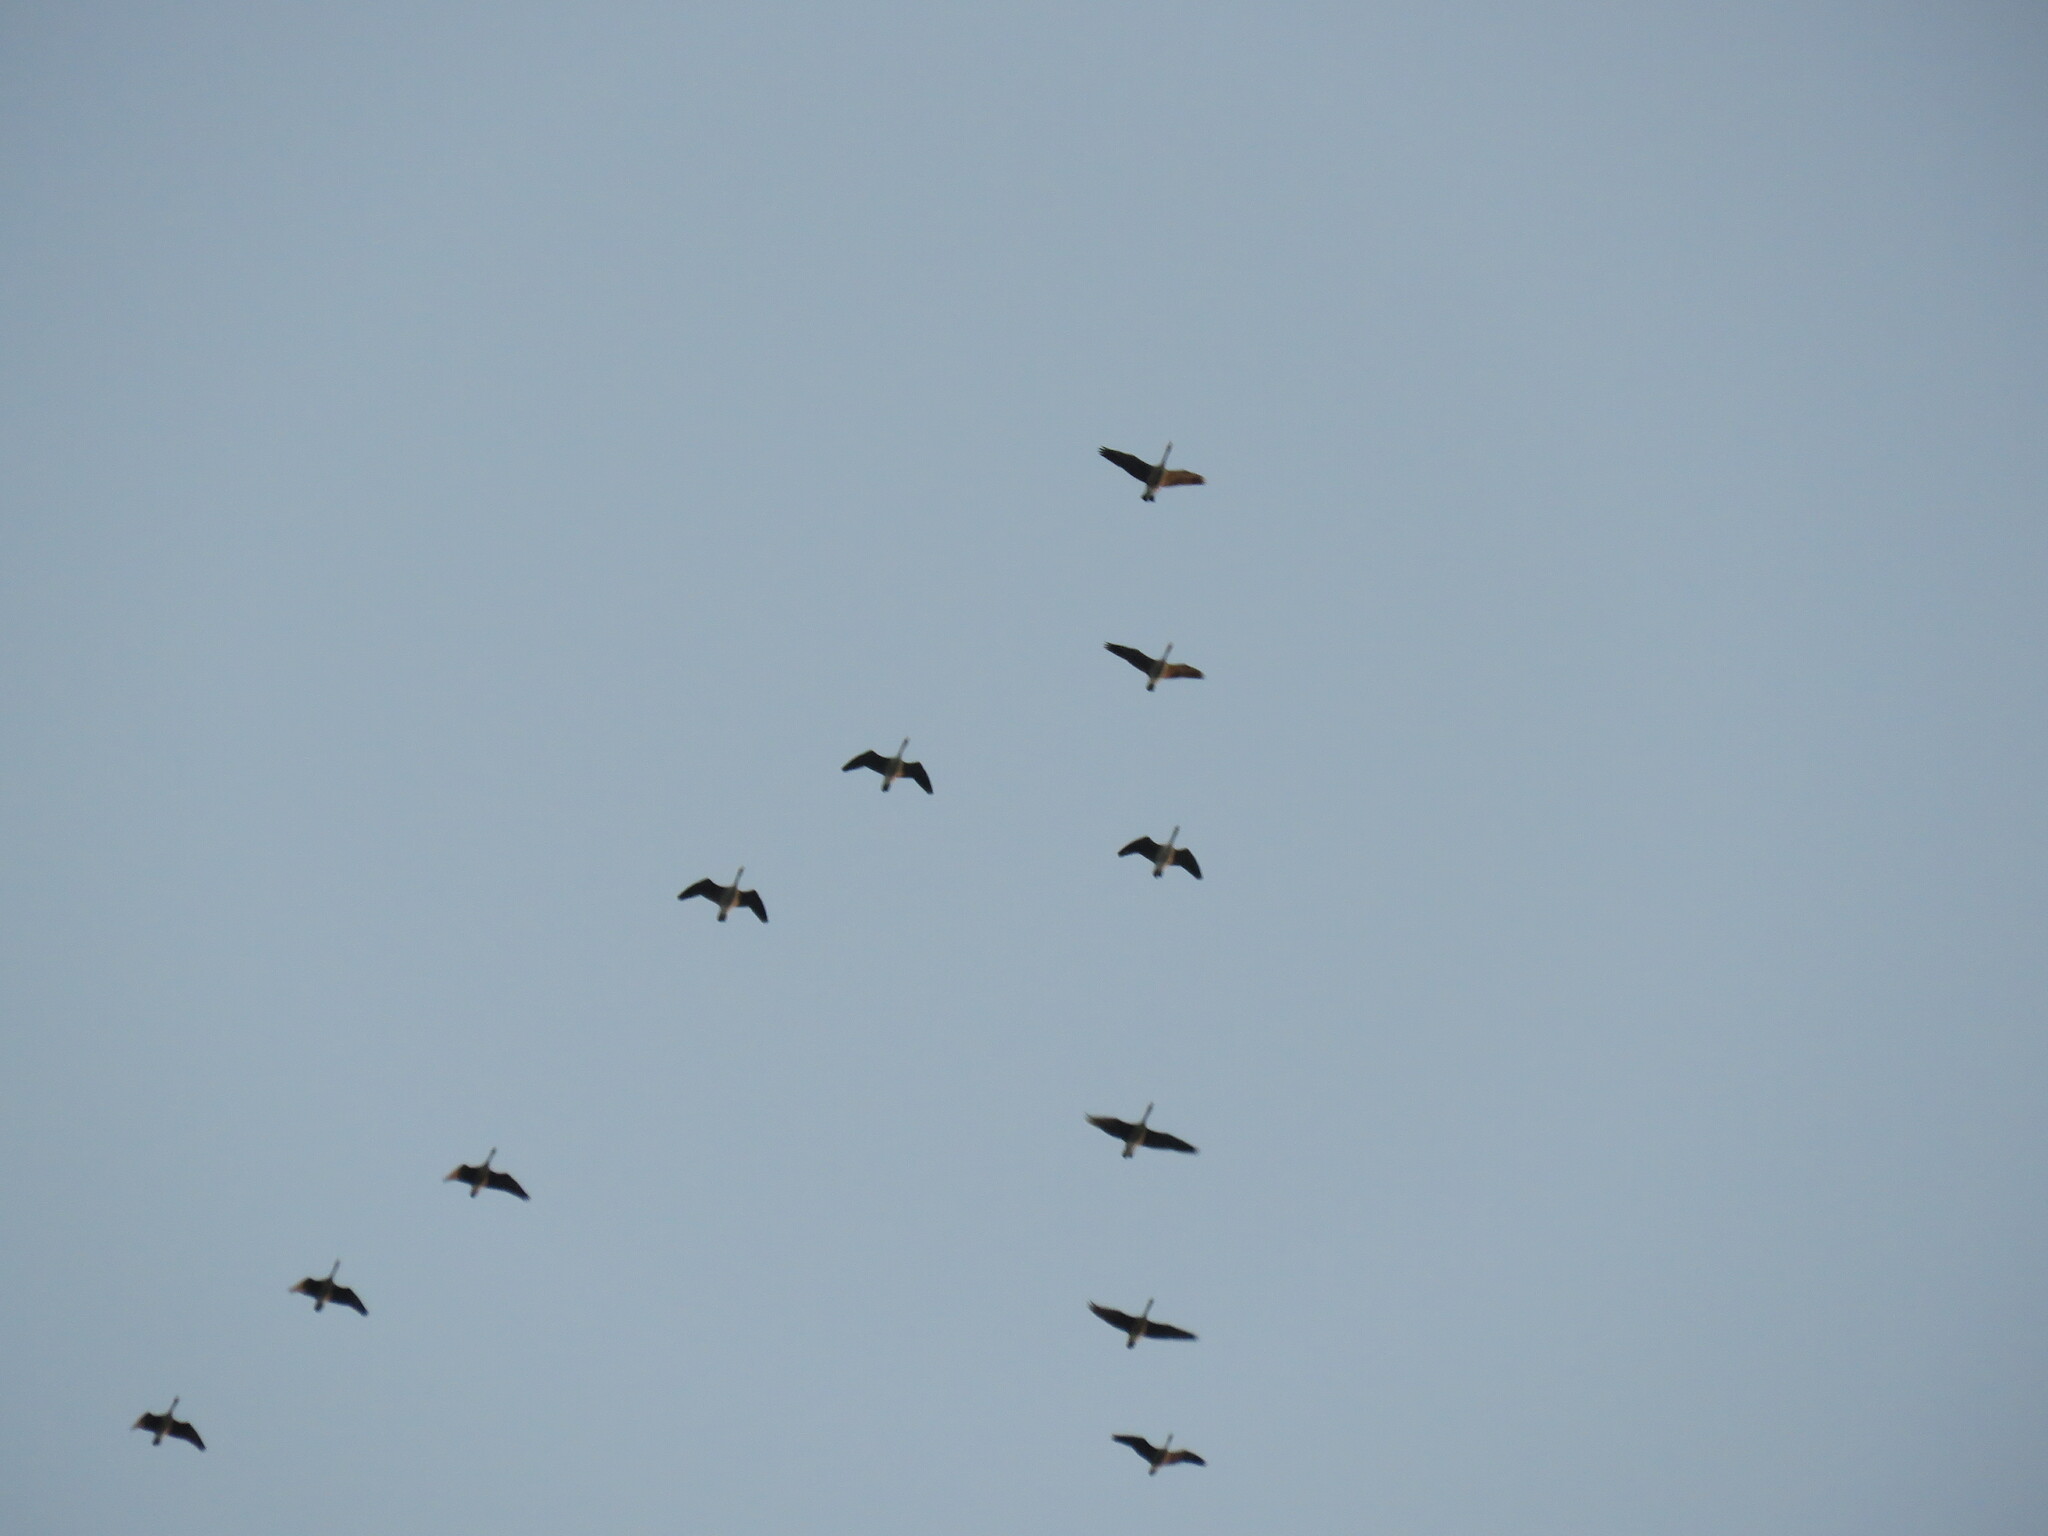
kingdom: Animalia
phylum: Chordata
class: Aves
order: Anseriformes
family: Anatidae
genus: Branta
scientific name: Branta canadensis
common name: Canada goose
